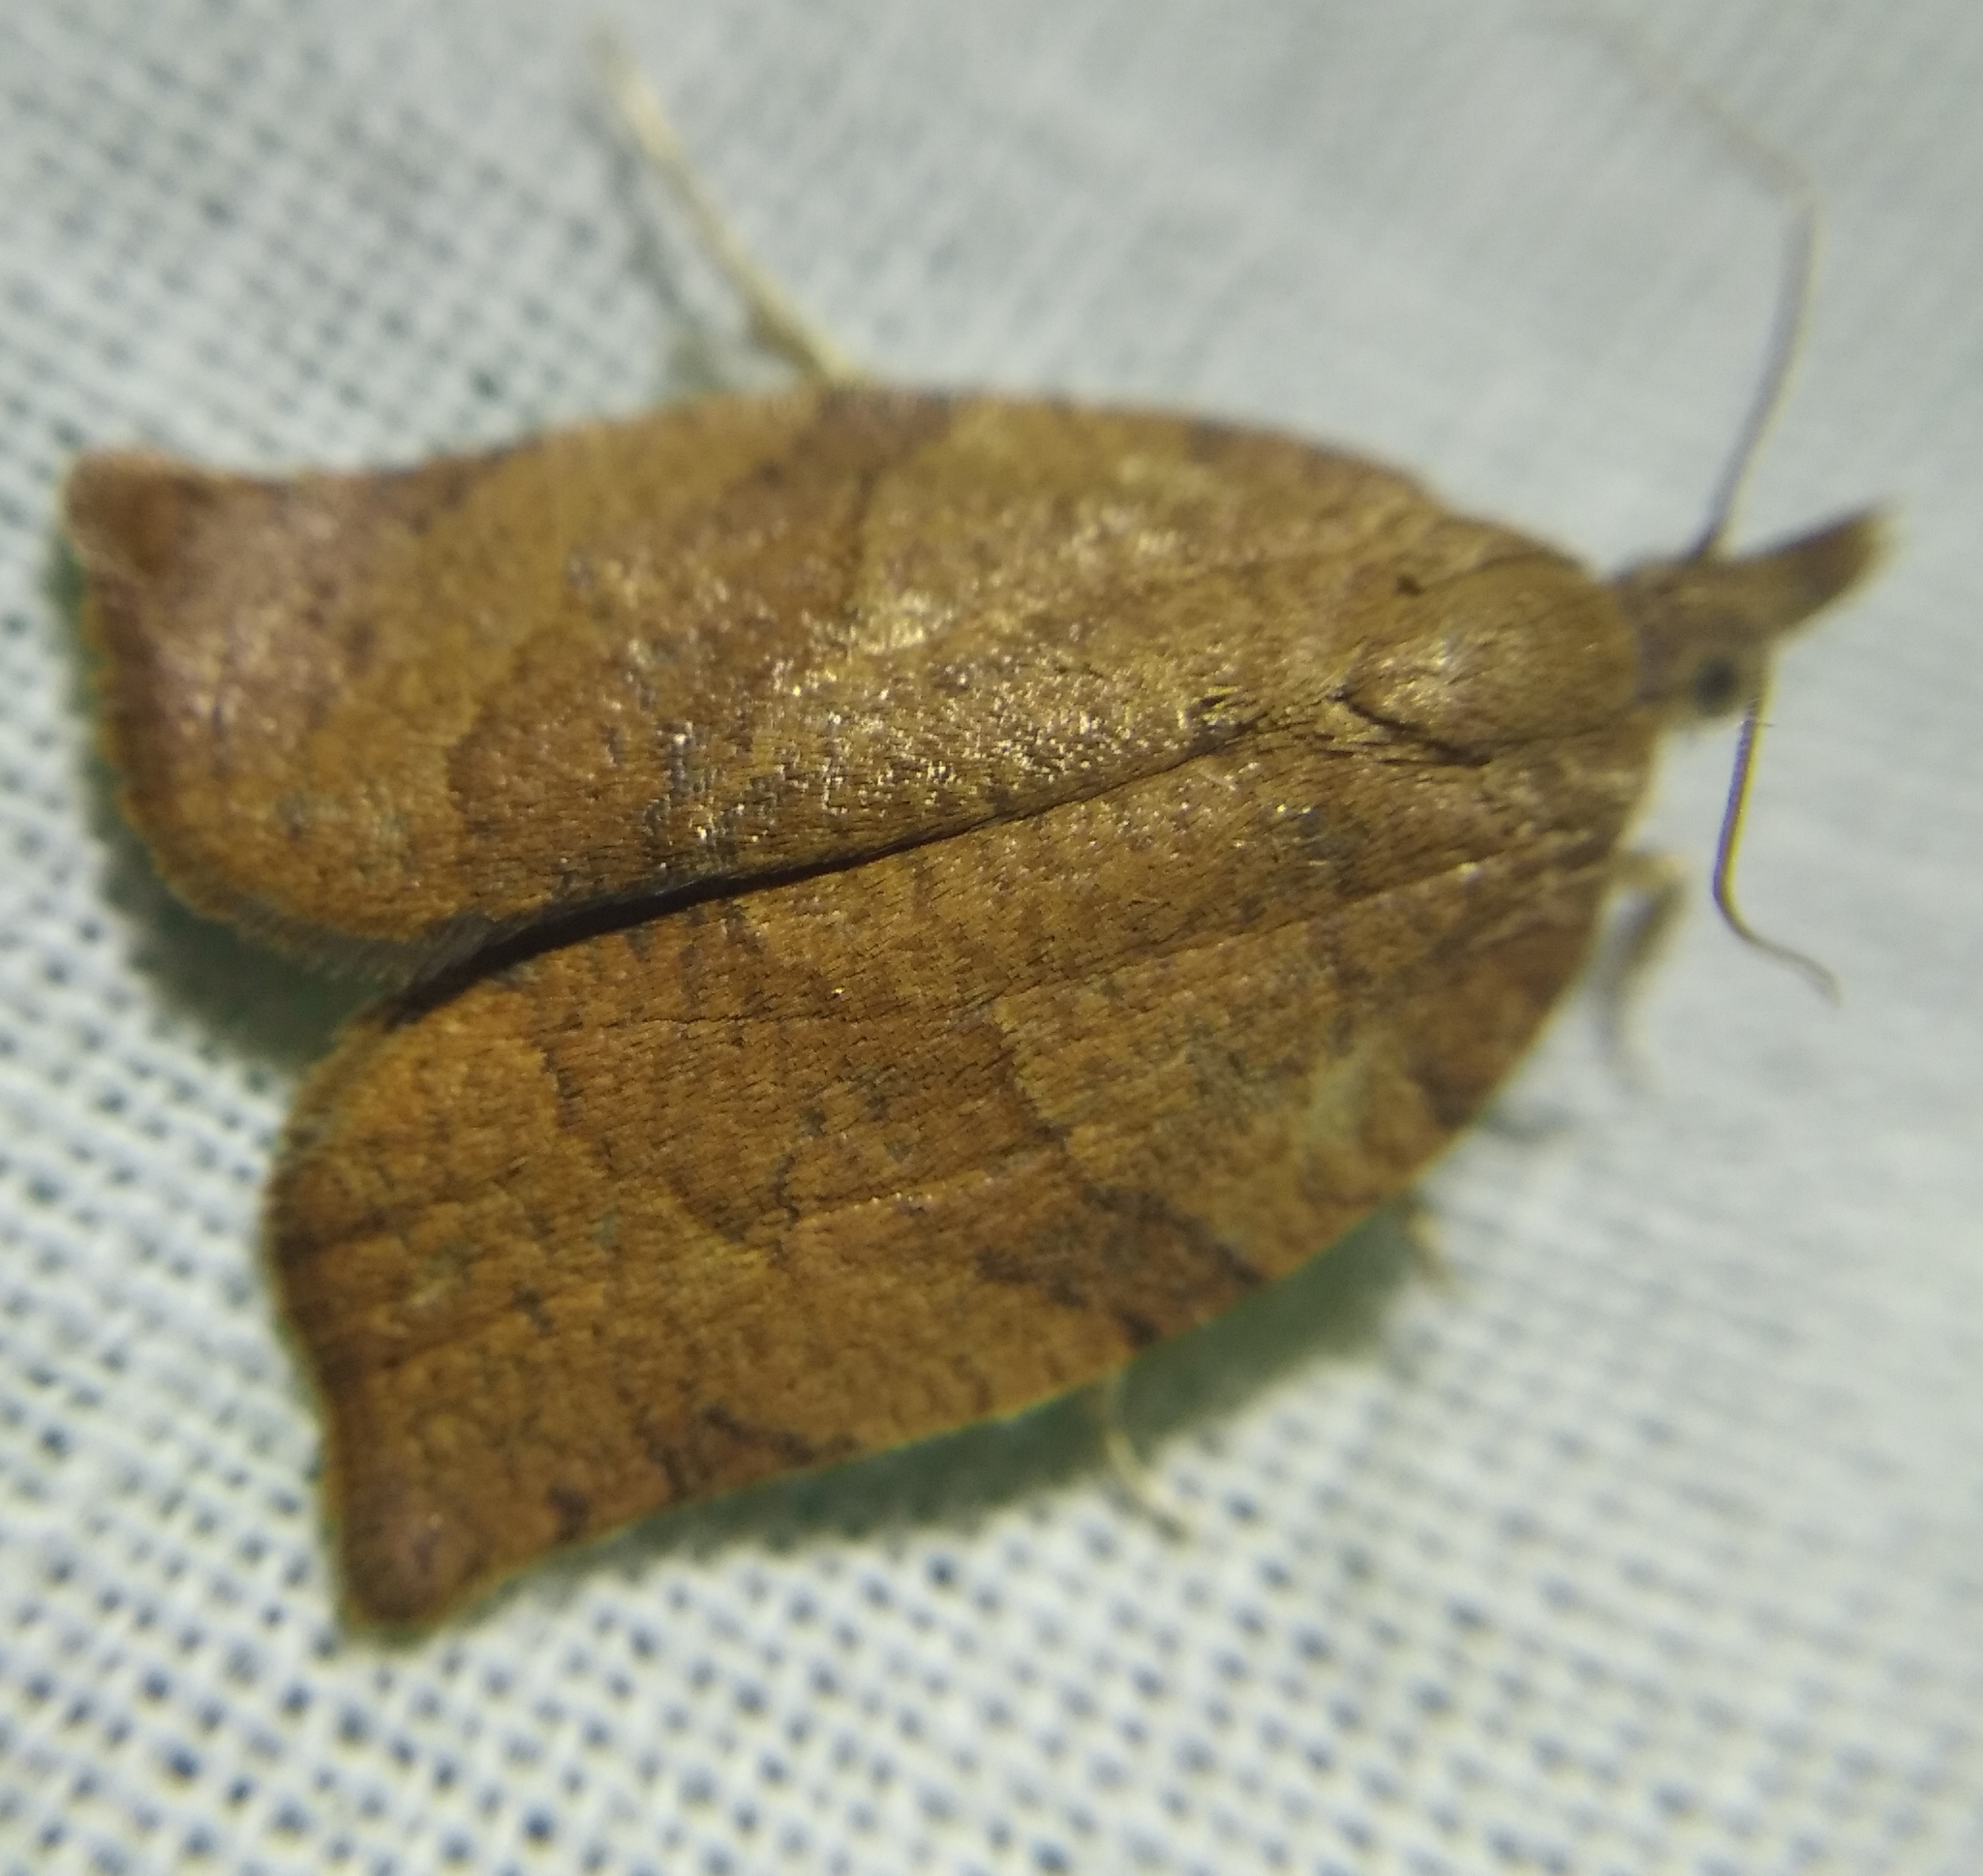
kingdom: Animalia
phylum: Arthropoda
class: Insecta
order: Lepidoptera
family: Tortricidae
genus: Pandemis
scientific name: Pandemis heparana
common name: Dark fruit-tree tortrix
